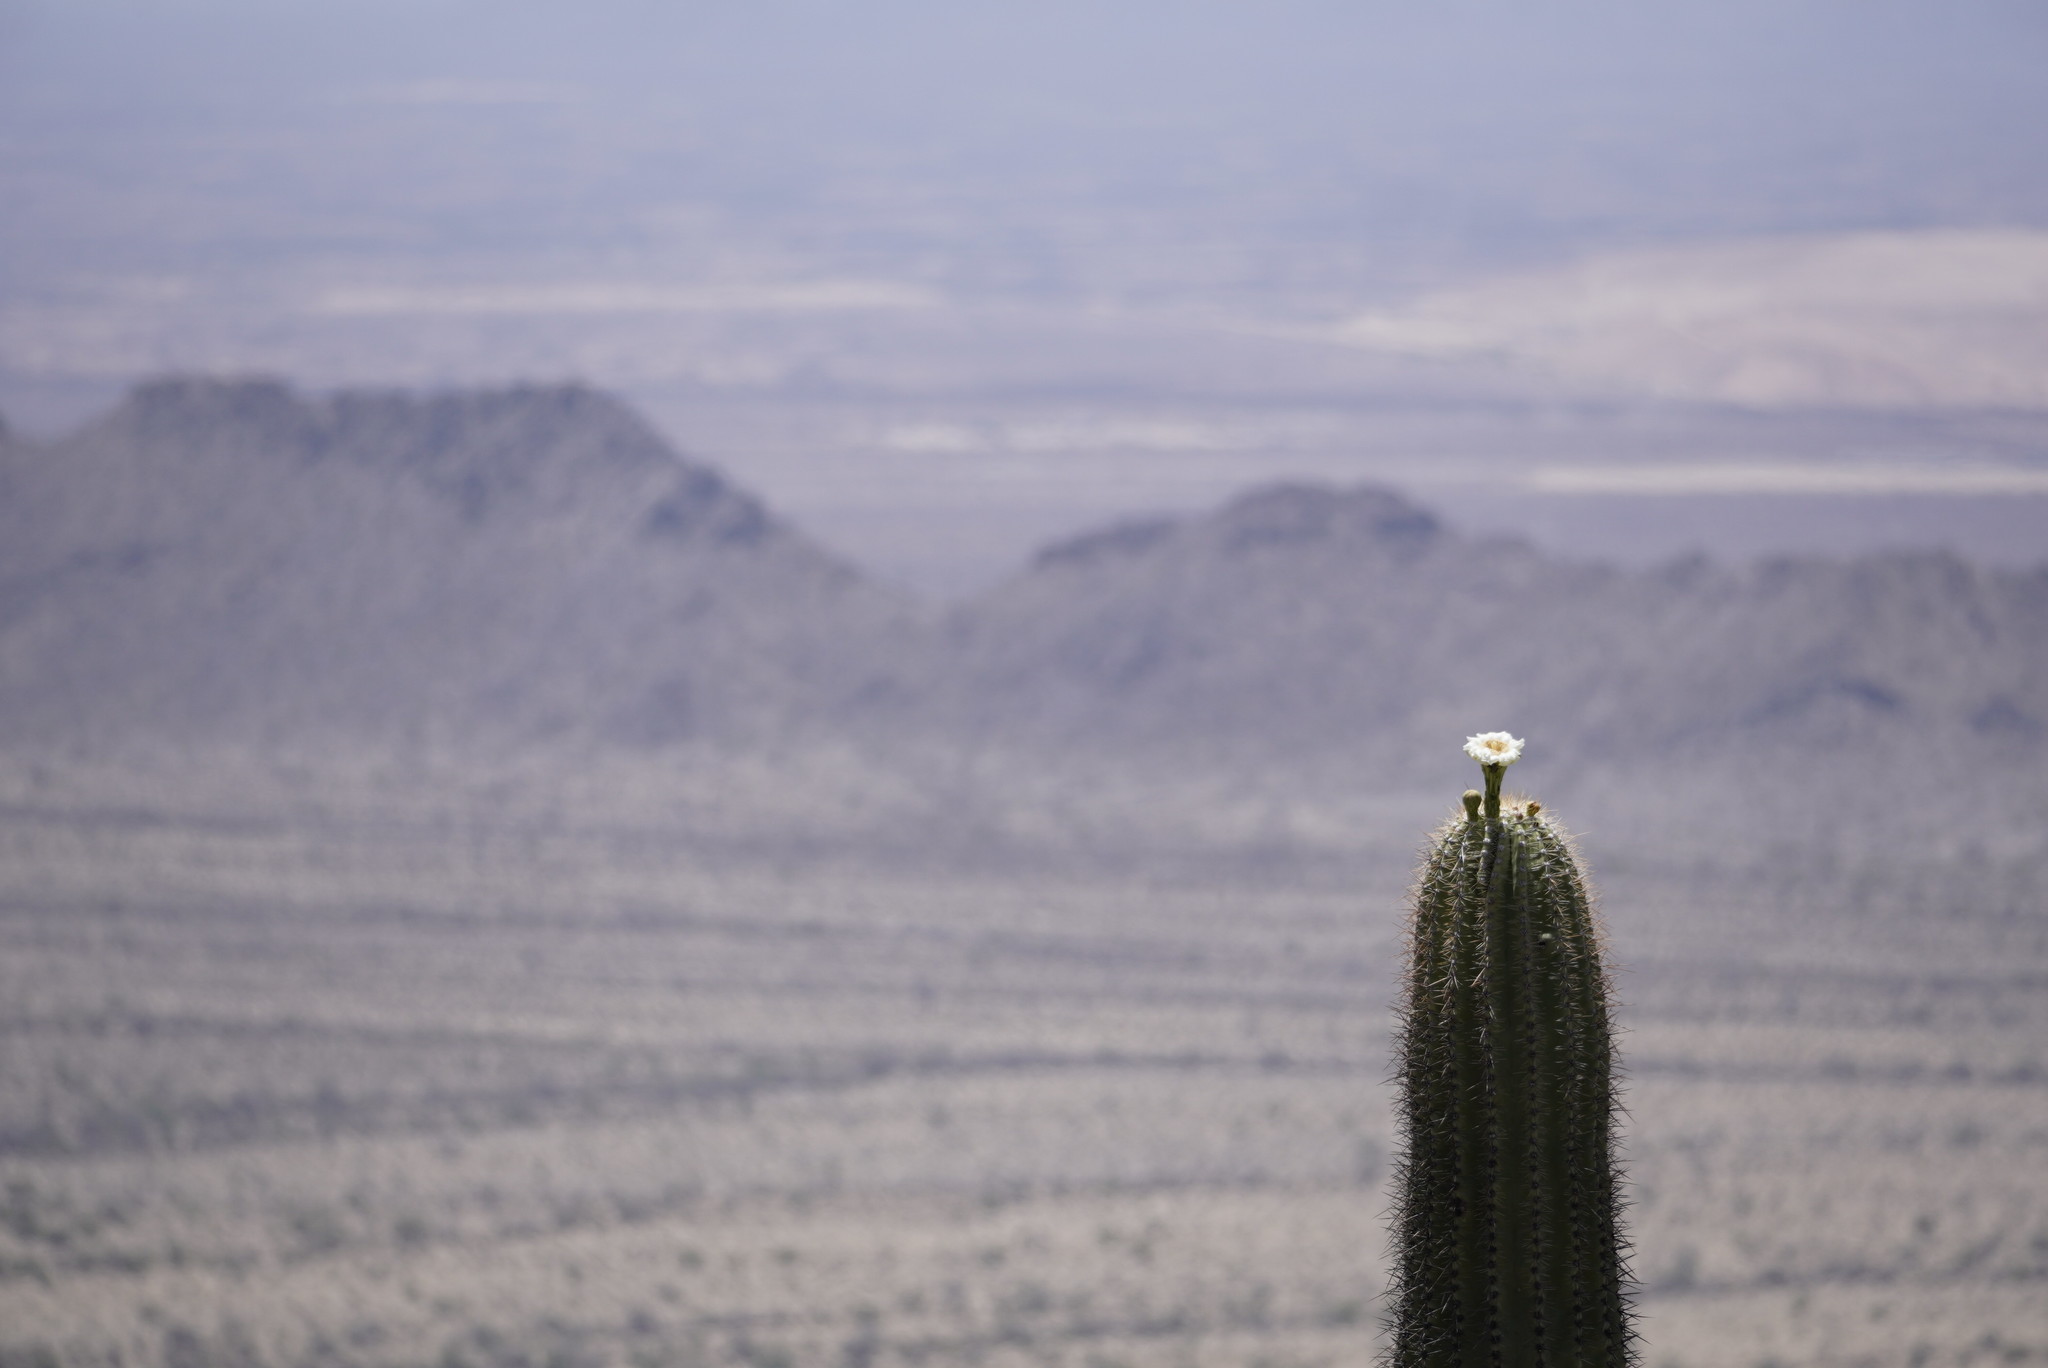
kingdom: Plantae
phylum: Tracheophyta
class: Magnoliopsida
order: Caryophyllales
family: Cactaceae
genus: Carnegiea
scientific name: Carnegiea gigantea
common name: Saguaro
